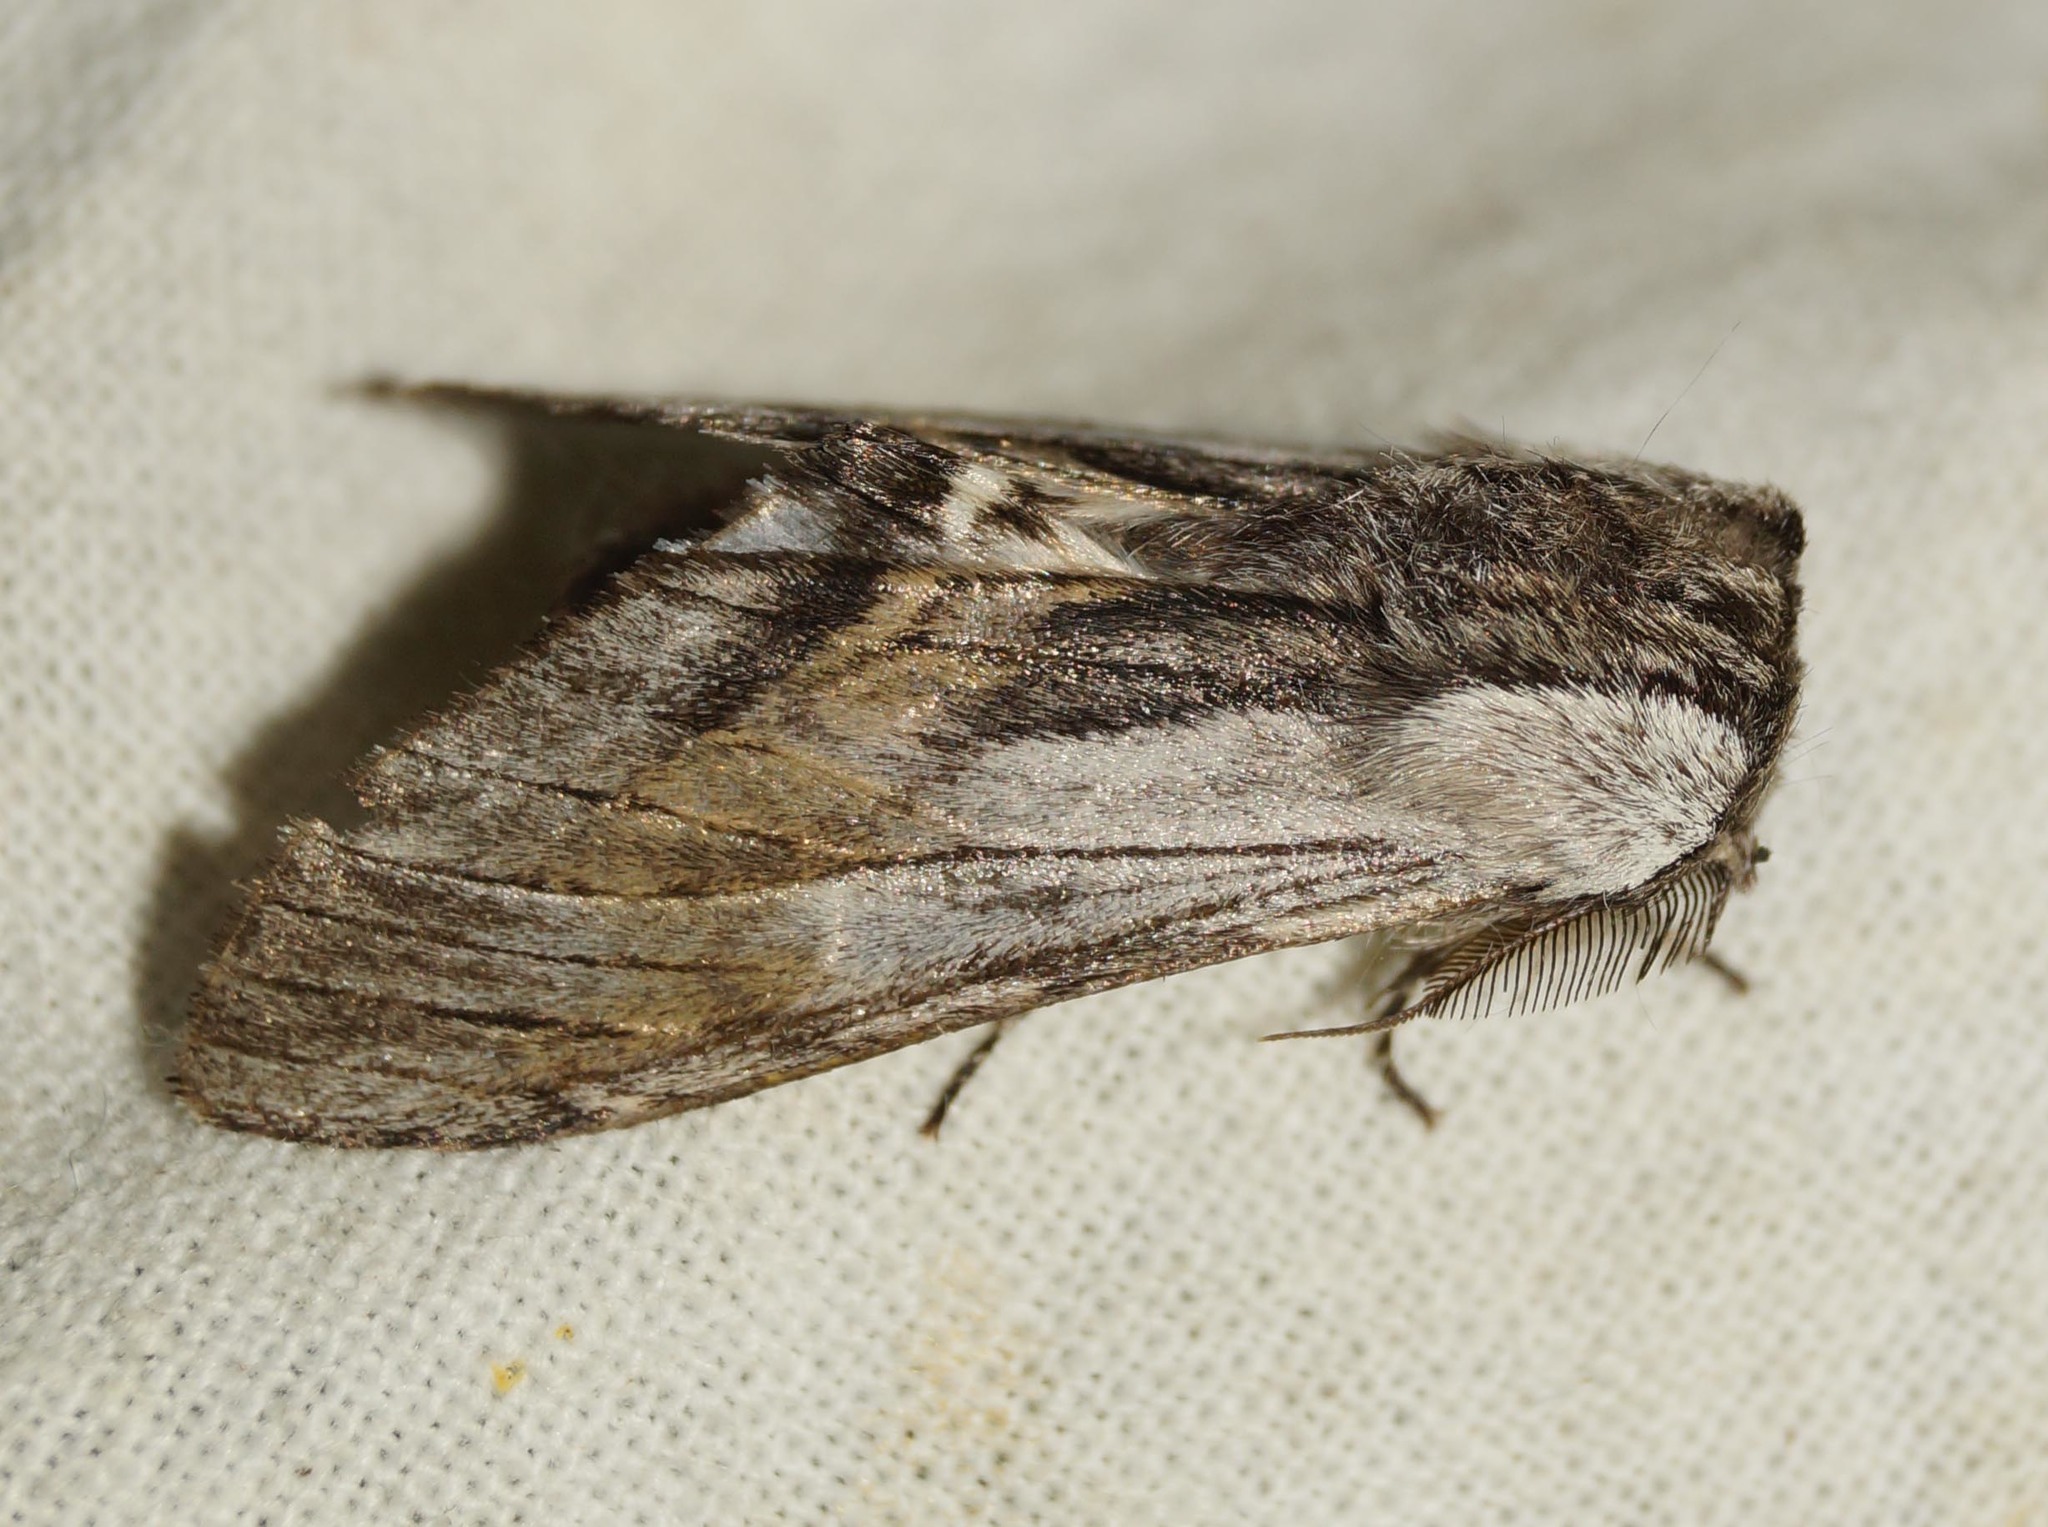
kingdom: Animalia
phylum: Arthropoda
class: Insecta
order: Lepidoptera
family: Notodontidae
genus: Harpyia
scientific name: Harpyia milhauseri
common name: Tawny prominent
